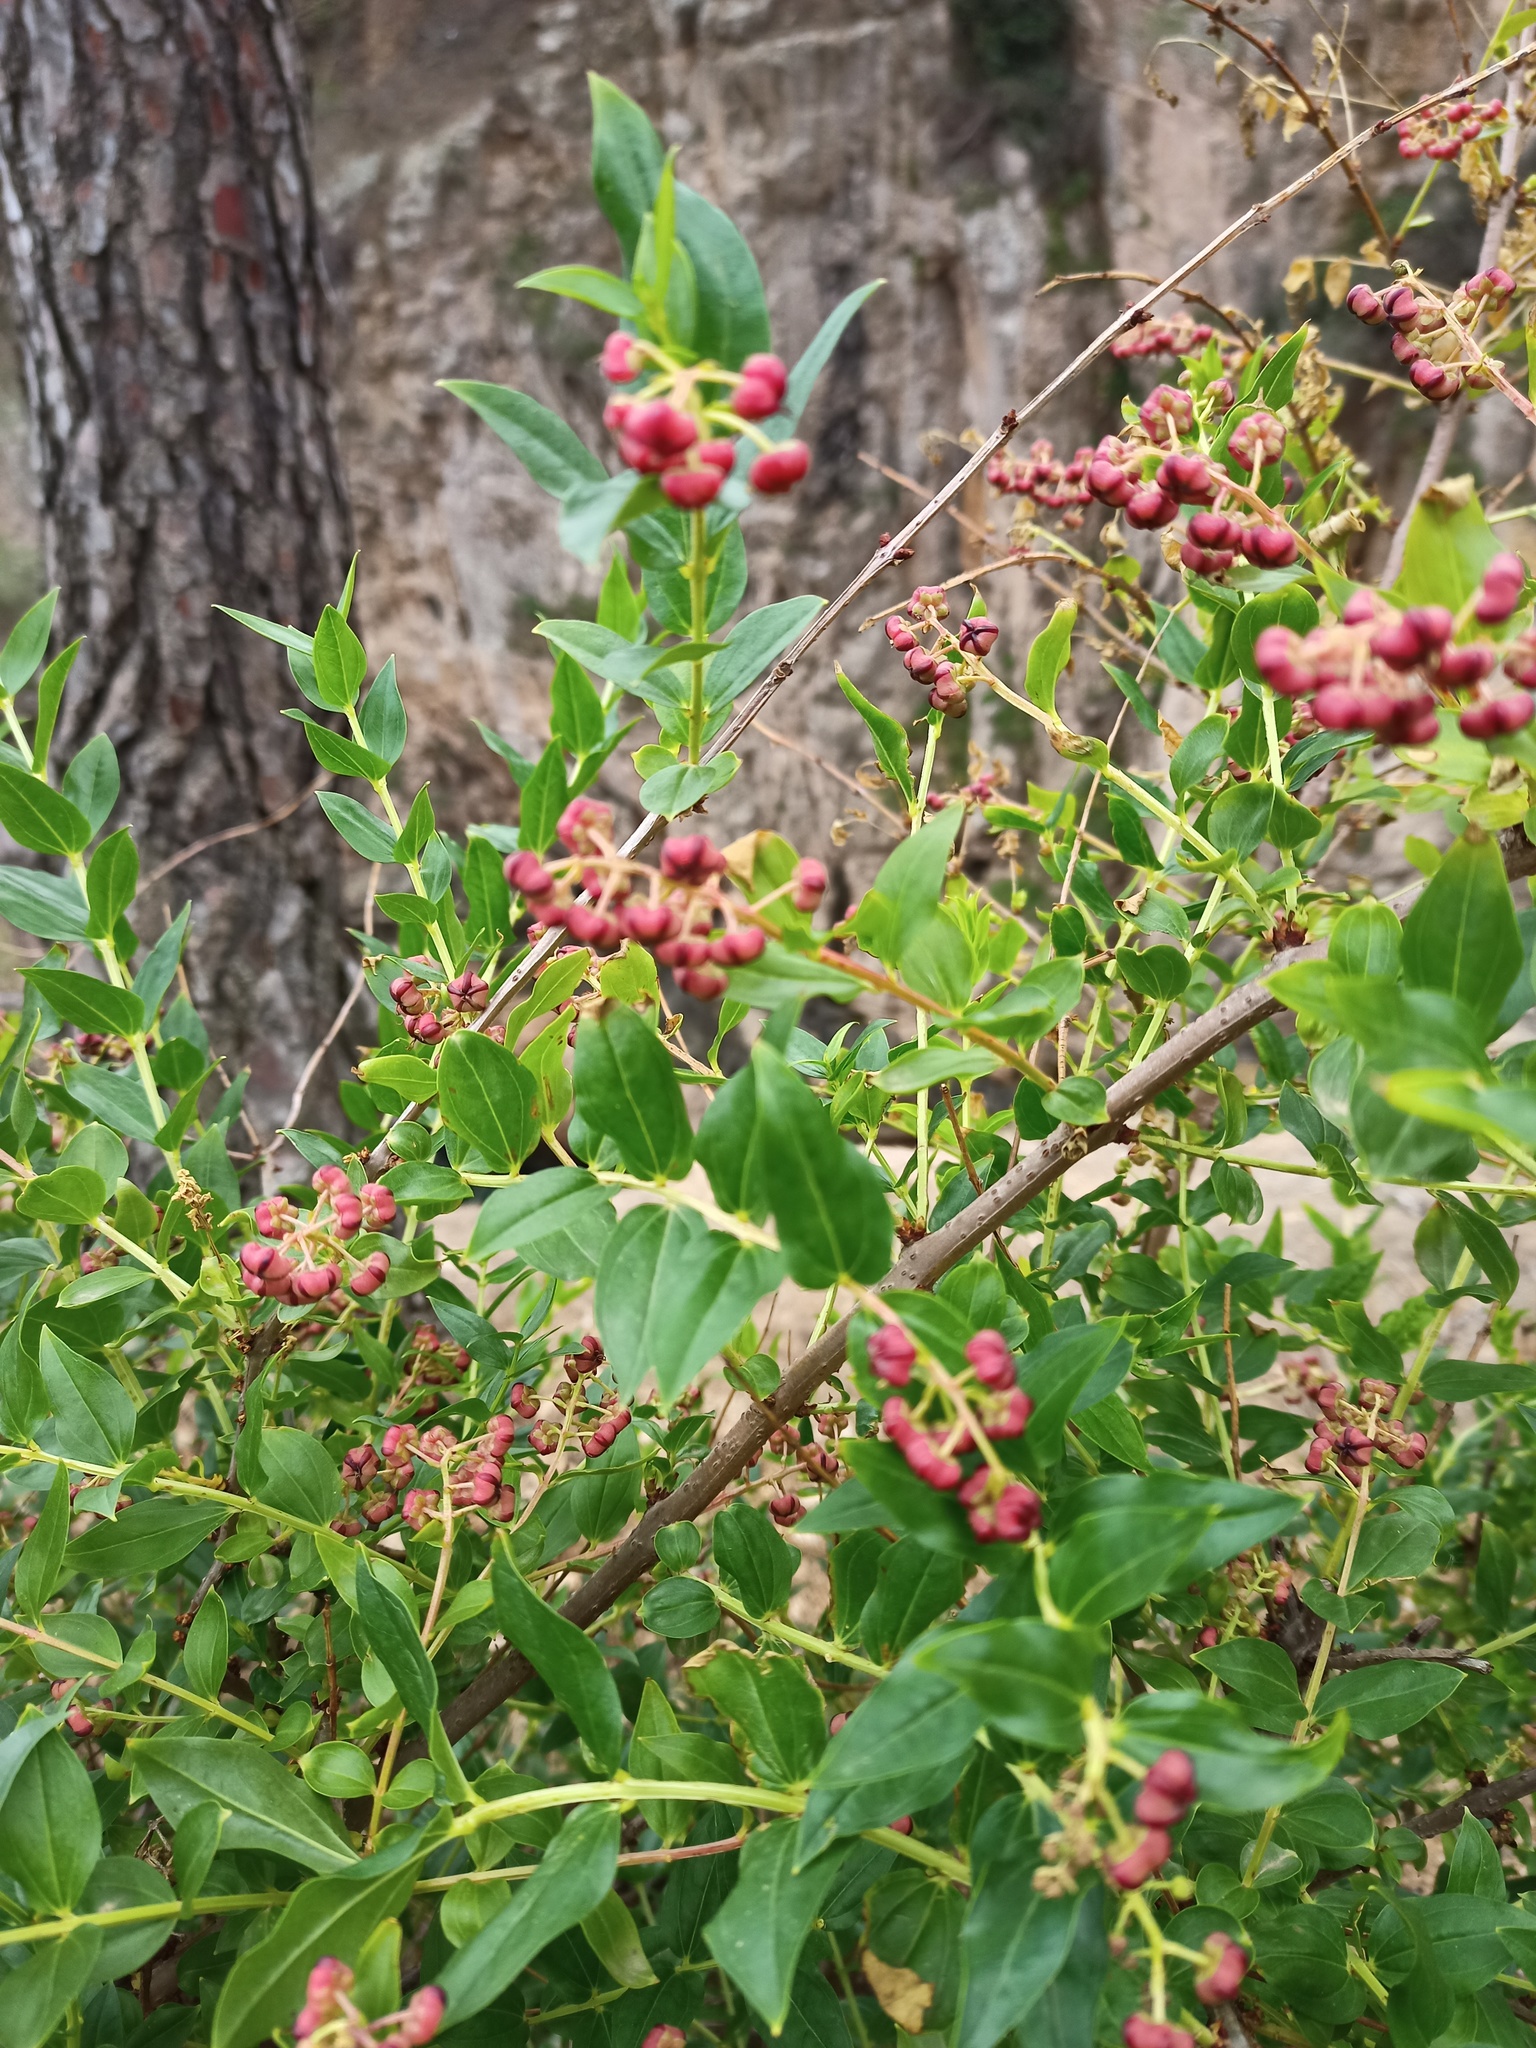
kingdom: Plantae
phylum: Tracheophyta
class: Magnoliopsida
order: Cucurbitales
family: Coriariaceae
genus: Coriaria
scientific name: Coriaria myrtifolia
